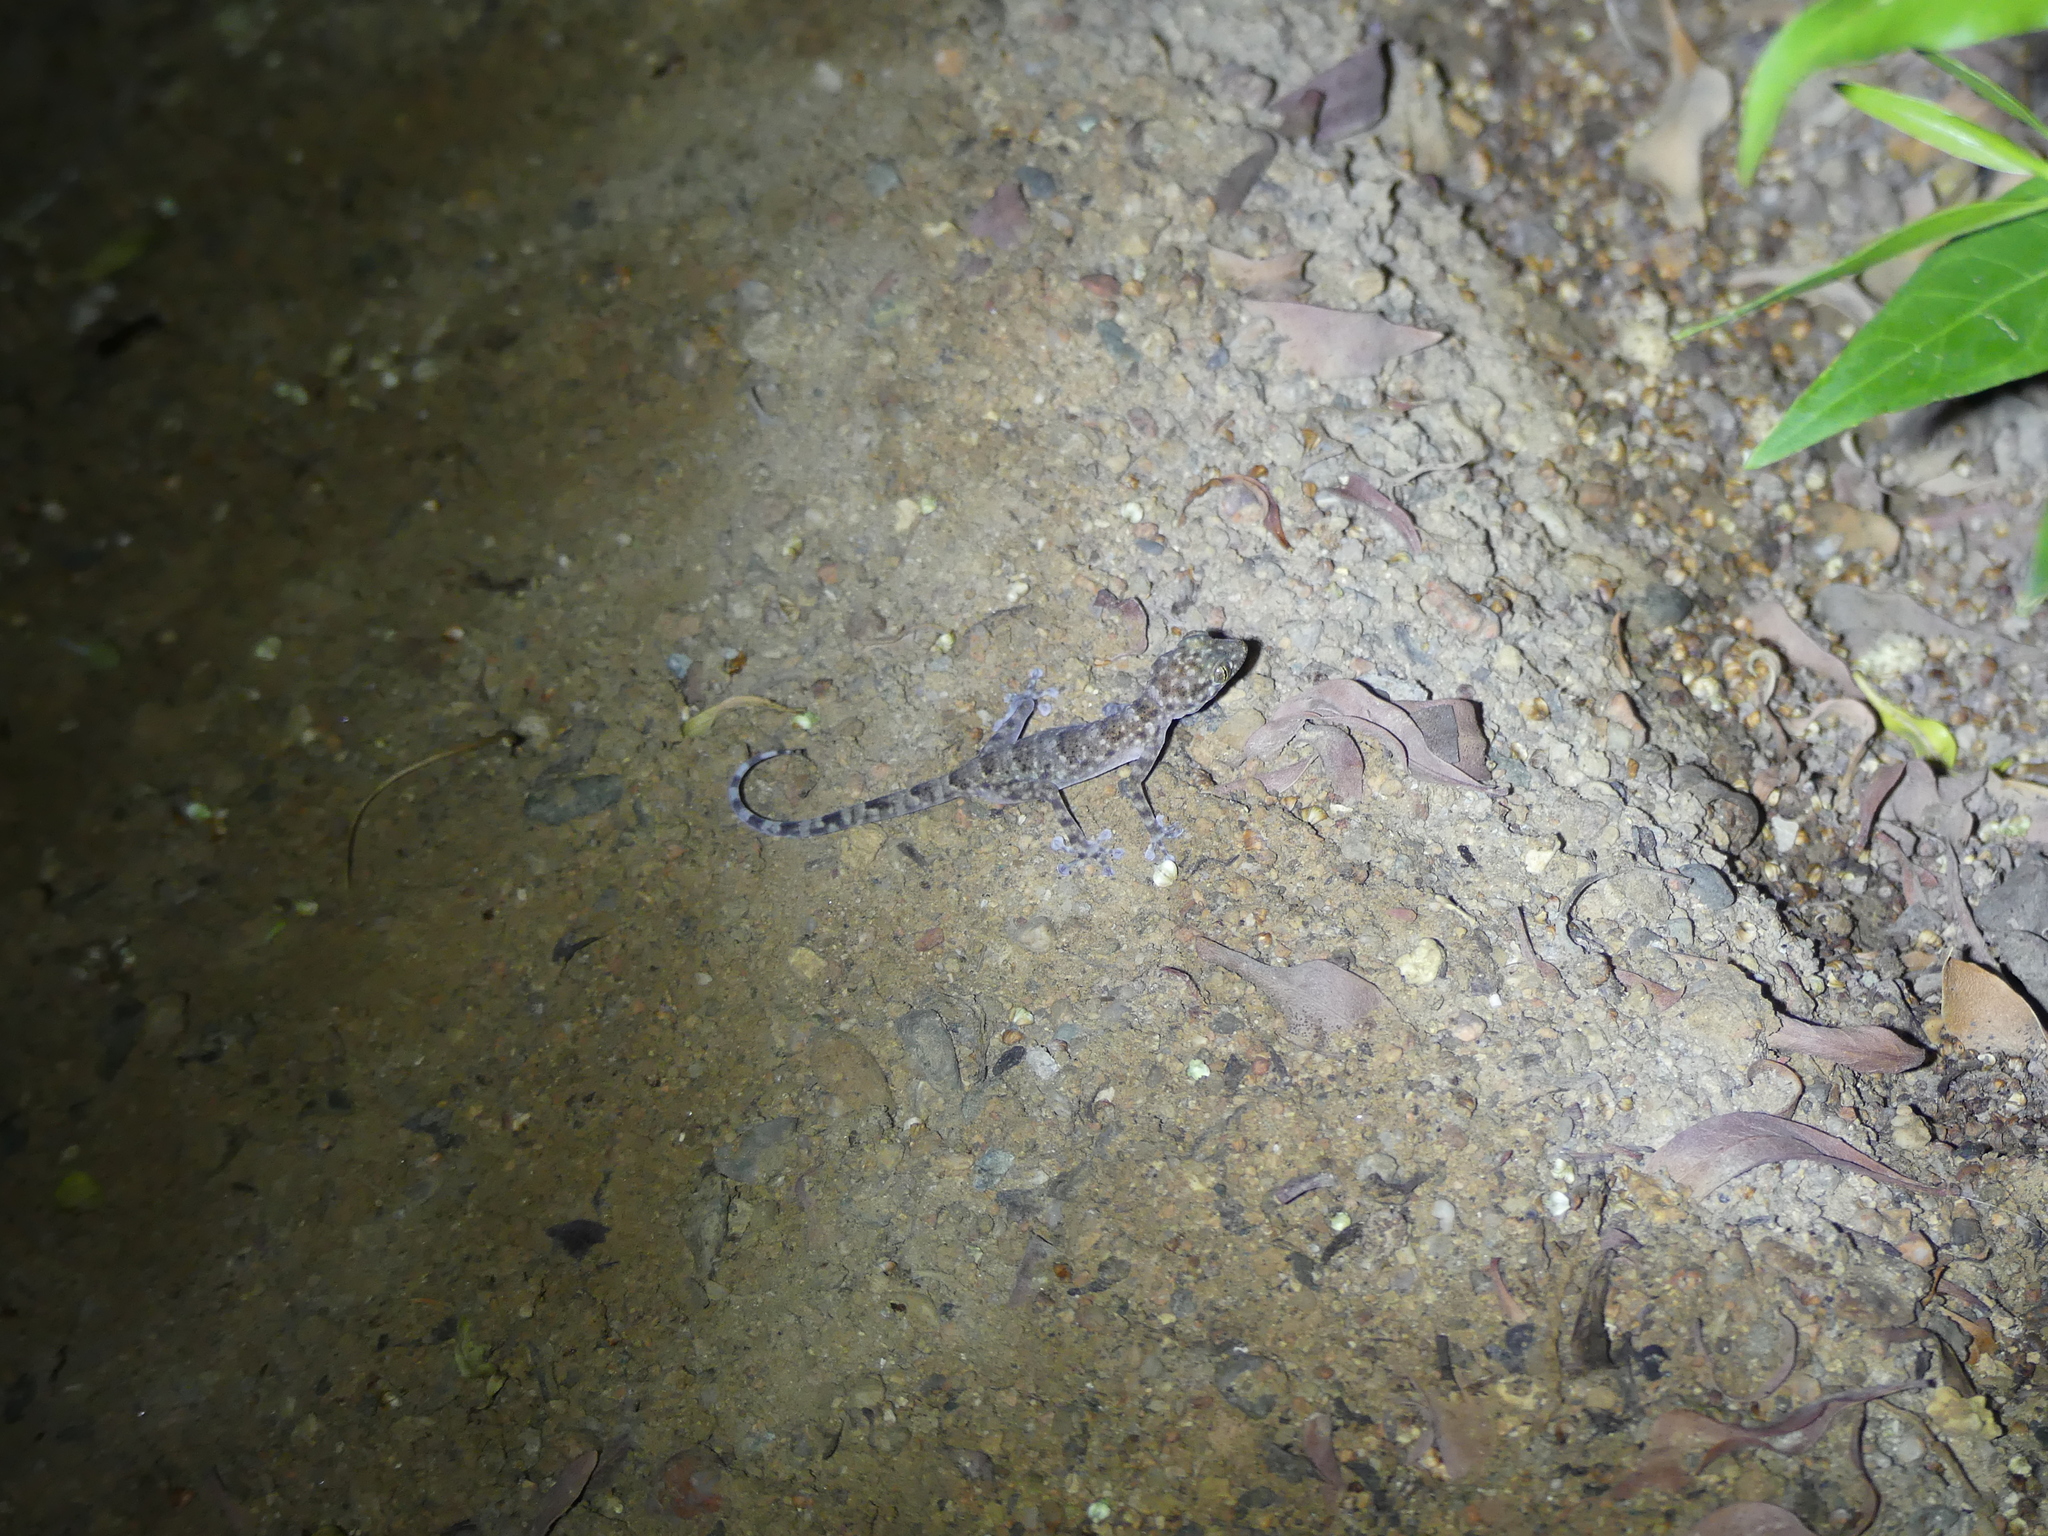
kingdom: Animalia
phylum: Chordata
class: Squamata
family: Phyllodactylidae
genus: Ptyodactylus
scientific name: Ptyodactylus hasselquistii
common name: Hasselquist’s fan-footed gecko
